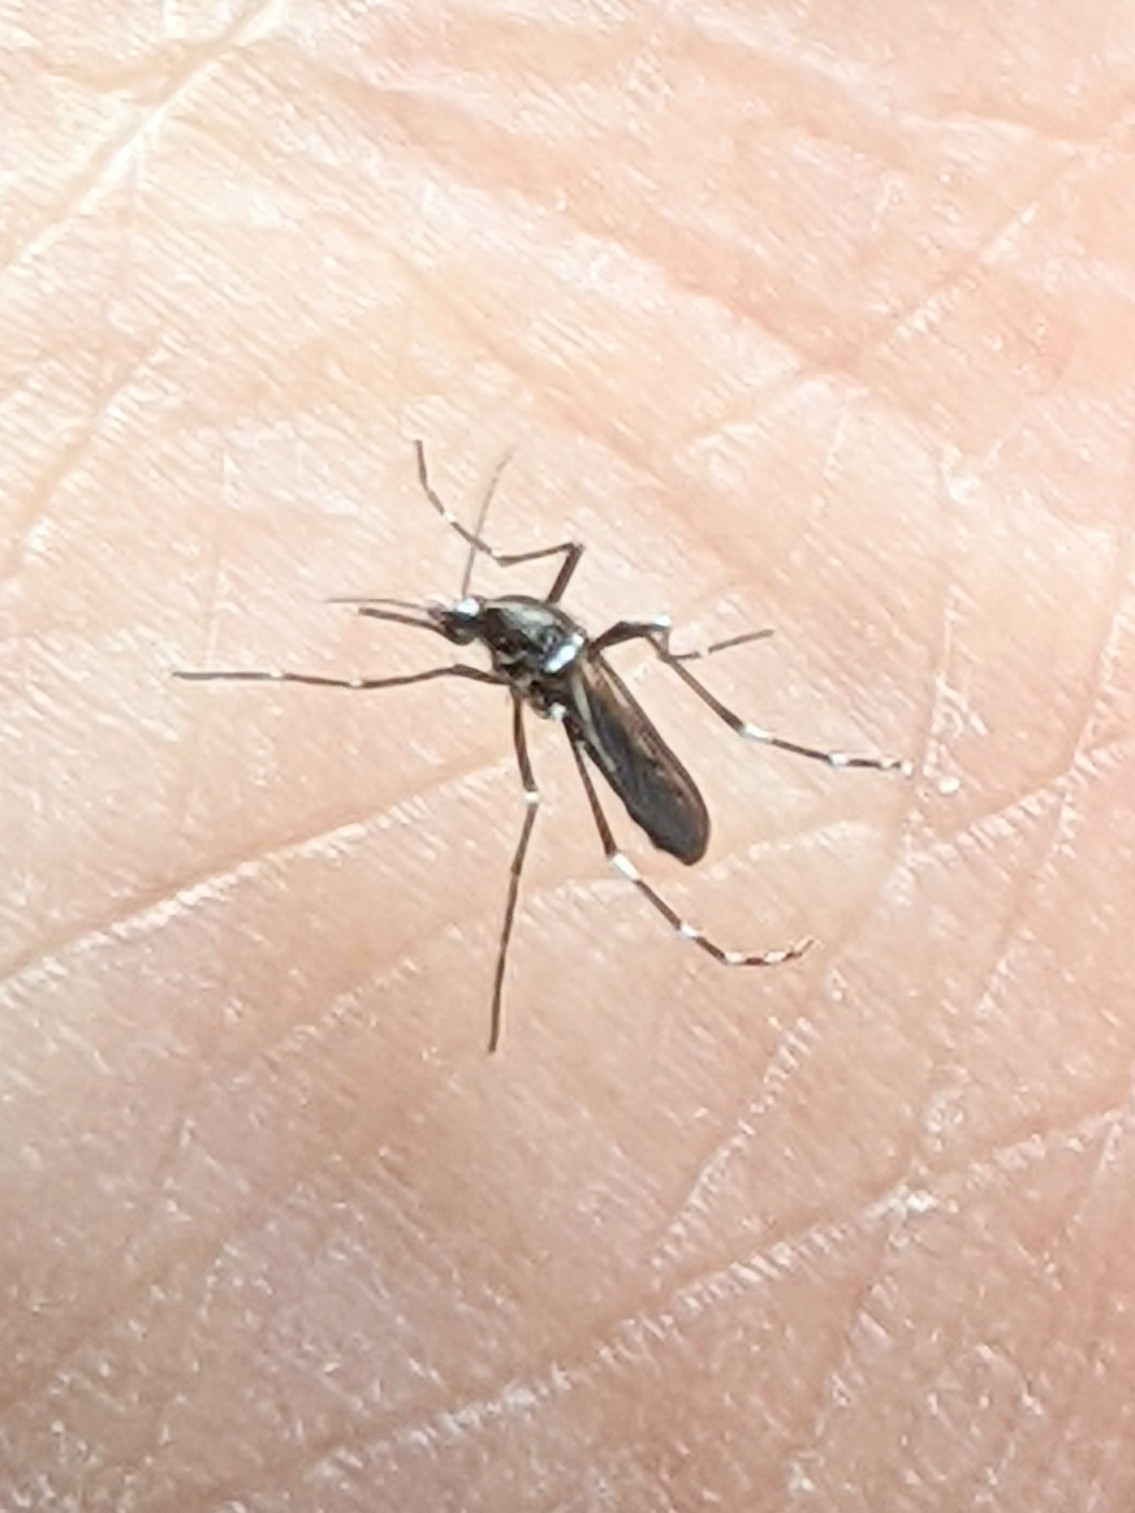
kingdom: Animalia
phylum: Arthropoda
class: Insecta
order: Diptera
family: Culicidae
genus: Aedes
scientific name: Aedes albopictus
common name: Tiger mosquito
